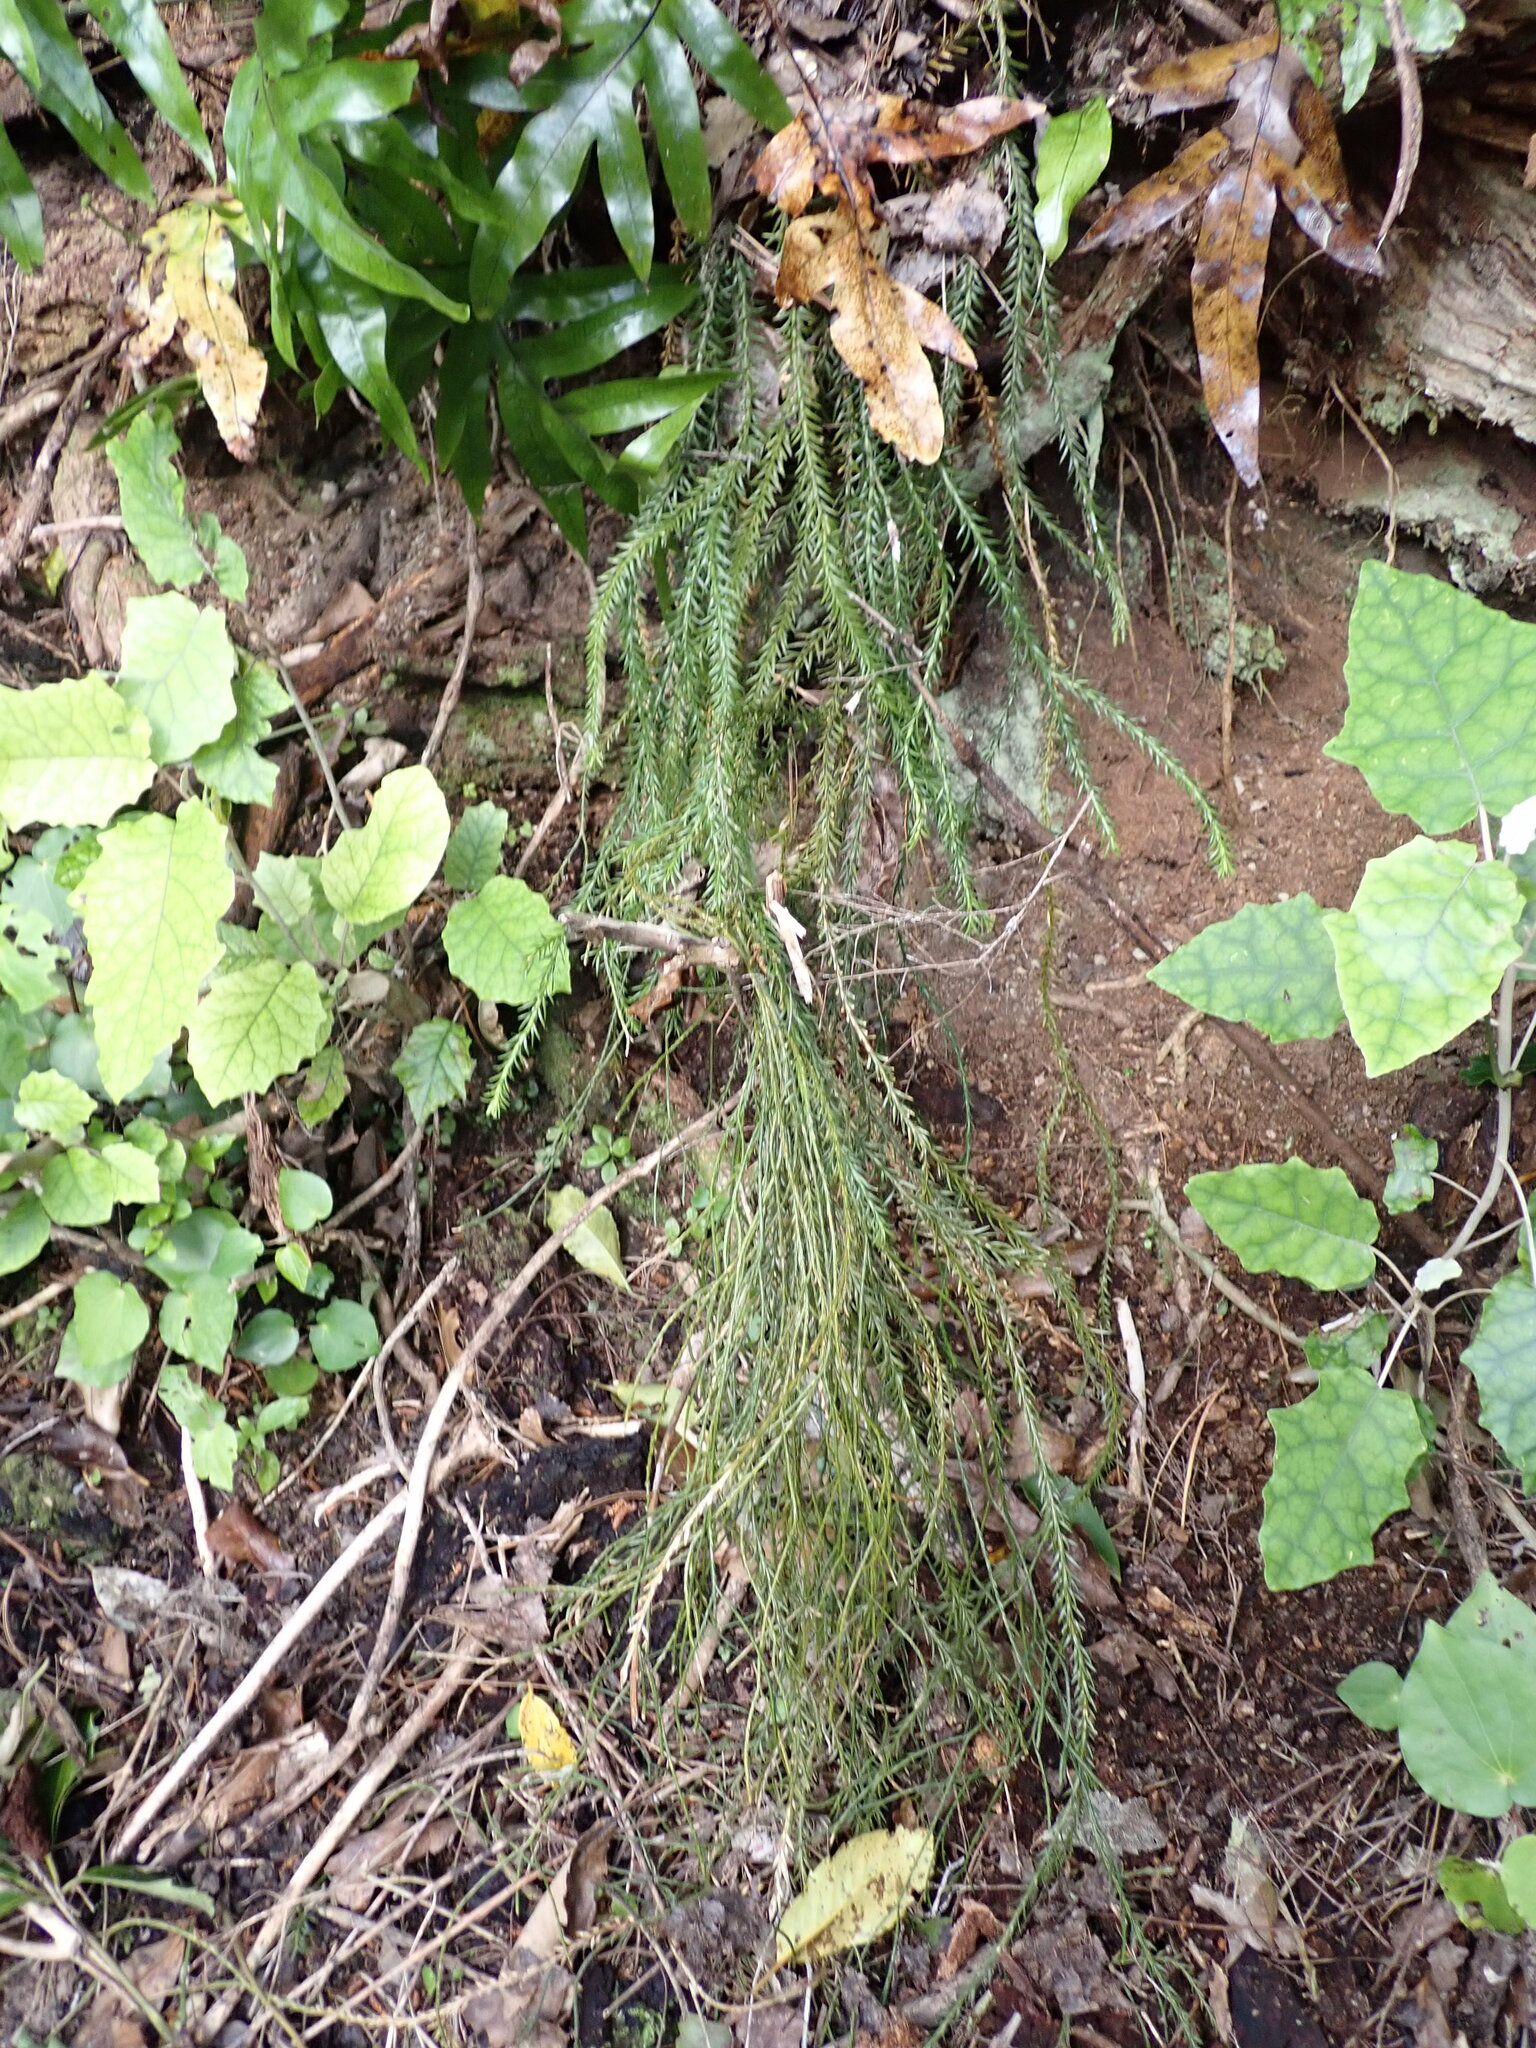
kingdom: Plantae
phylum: Tracheophyta
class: Lycopodiopsida
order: Lycopodiales
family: Lycopodiaceae
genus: Phlegmariurus
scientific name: Phlegmariurus billardierei
